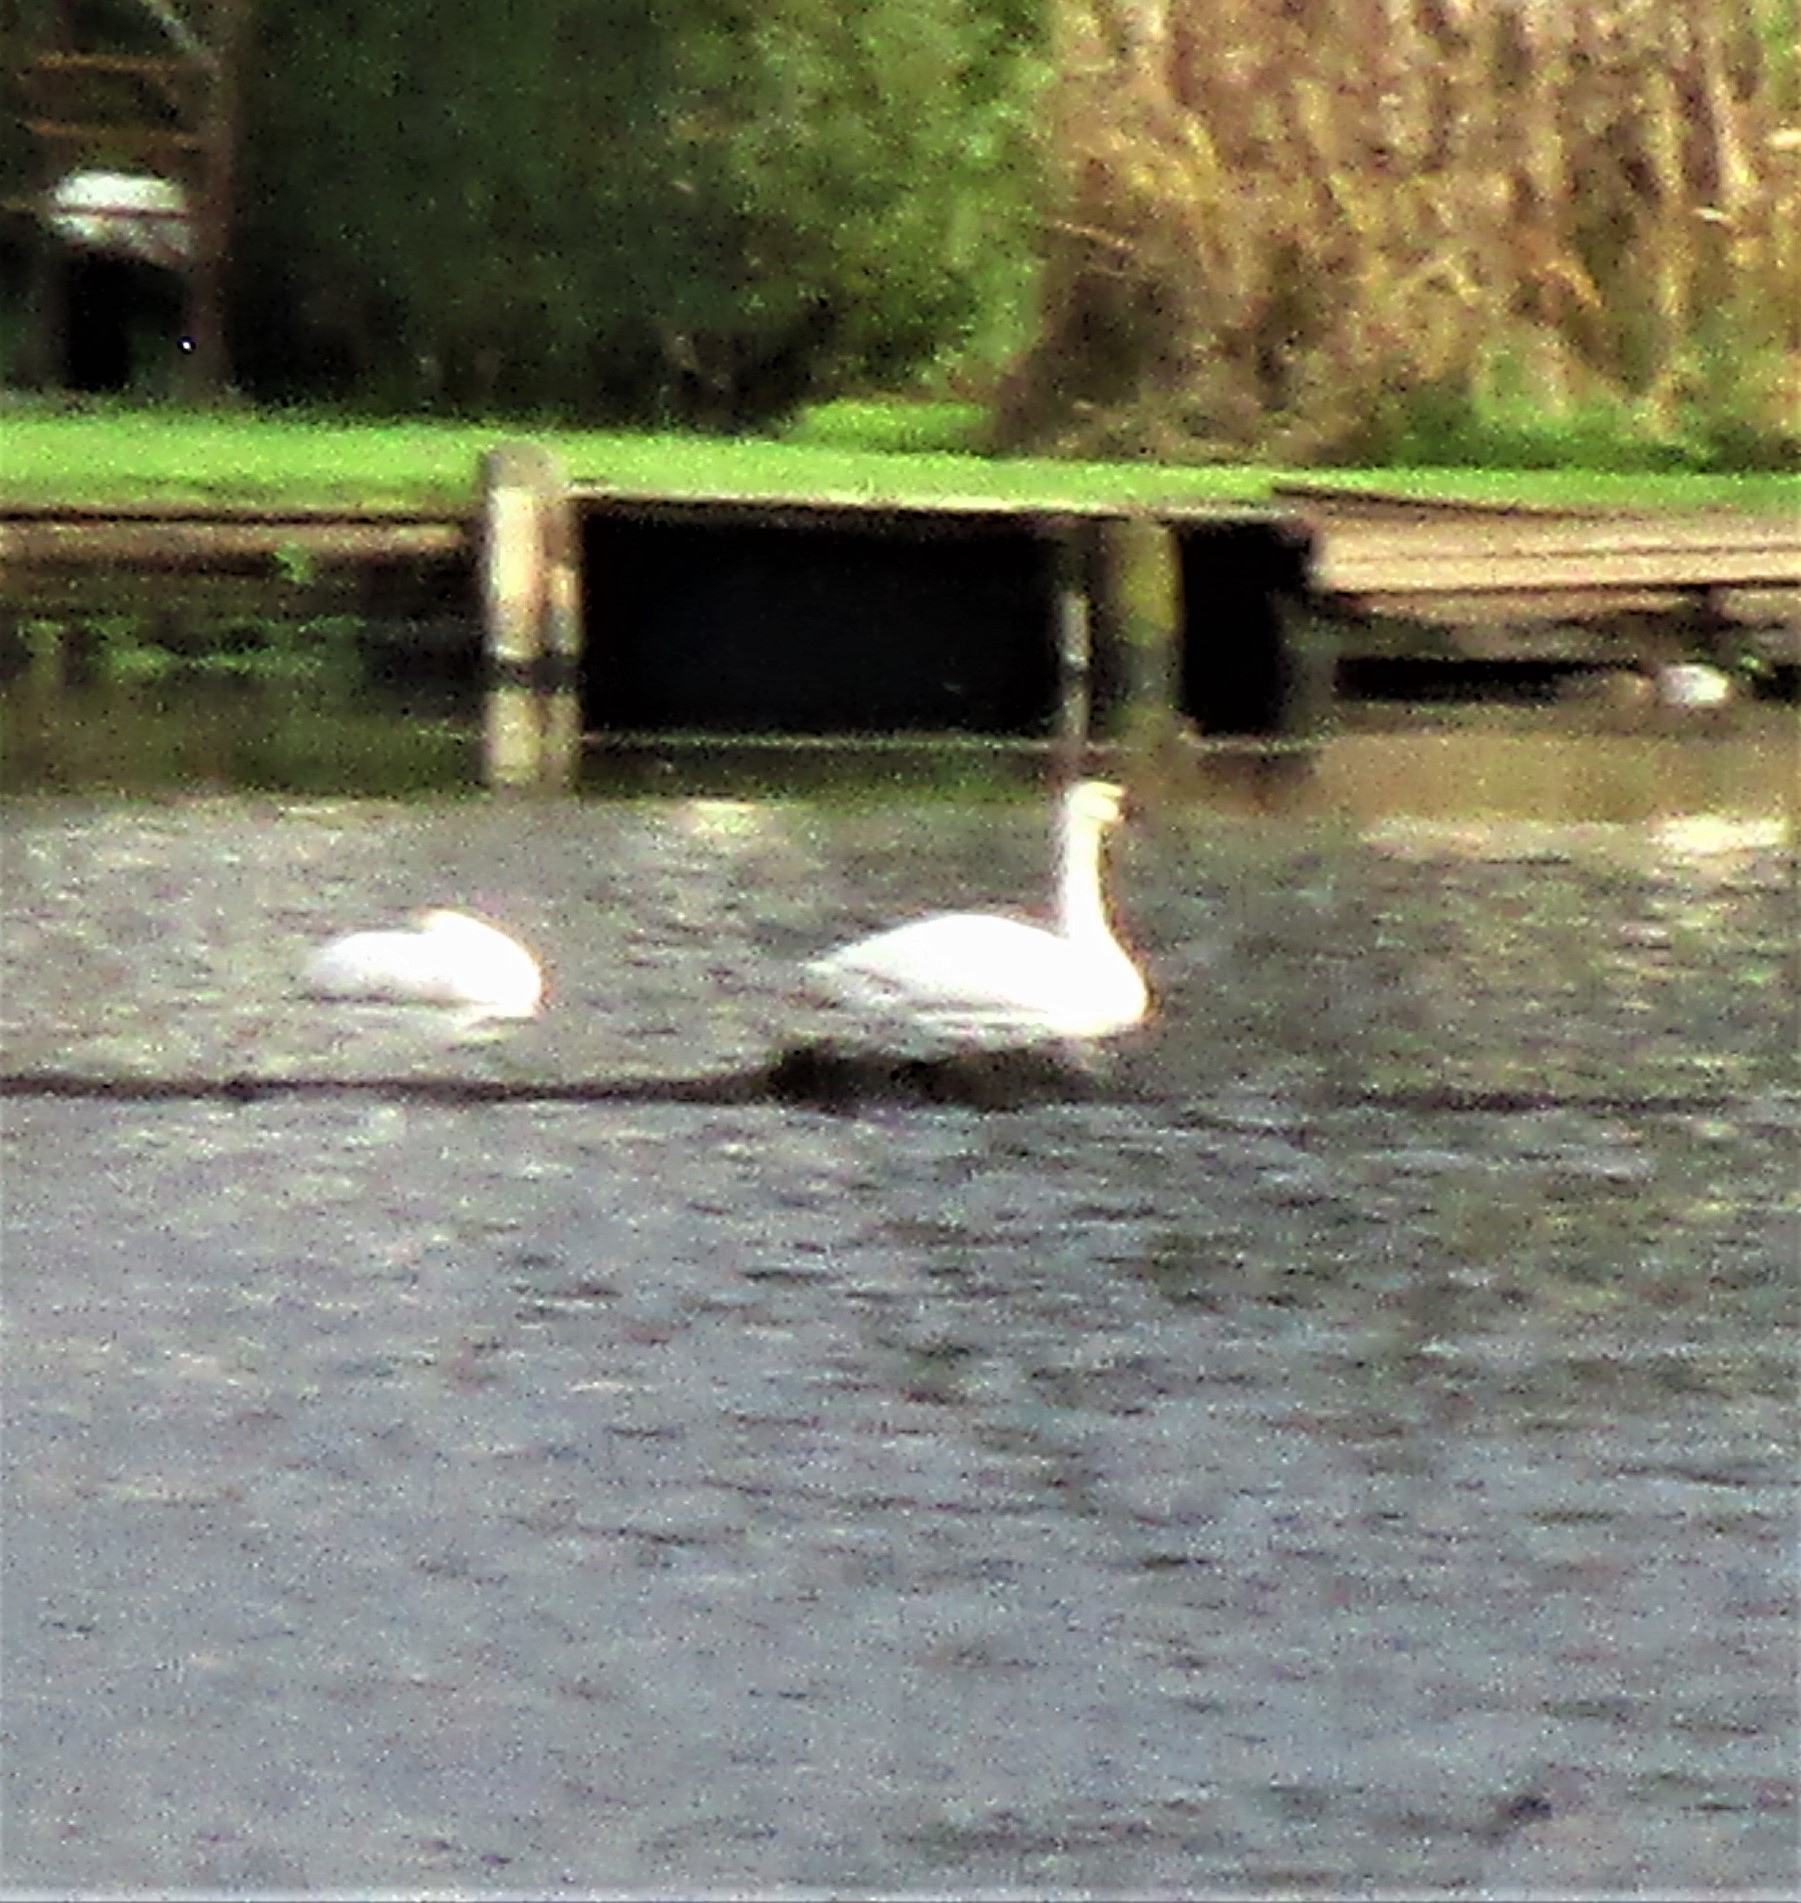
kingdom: Animalia
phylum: Chordata
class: Aves
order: Anseriformes
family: Anatidae
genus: Cygnus
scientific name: Cygnus buccinator
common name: Trumpeter swan
